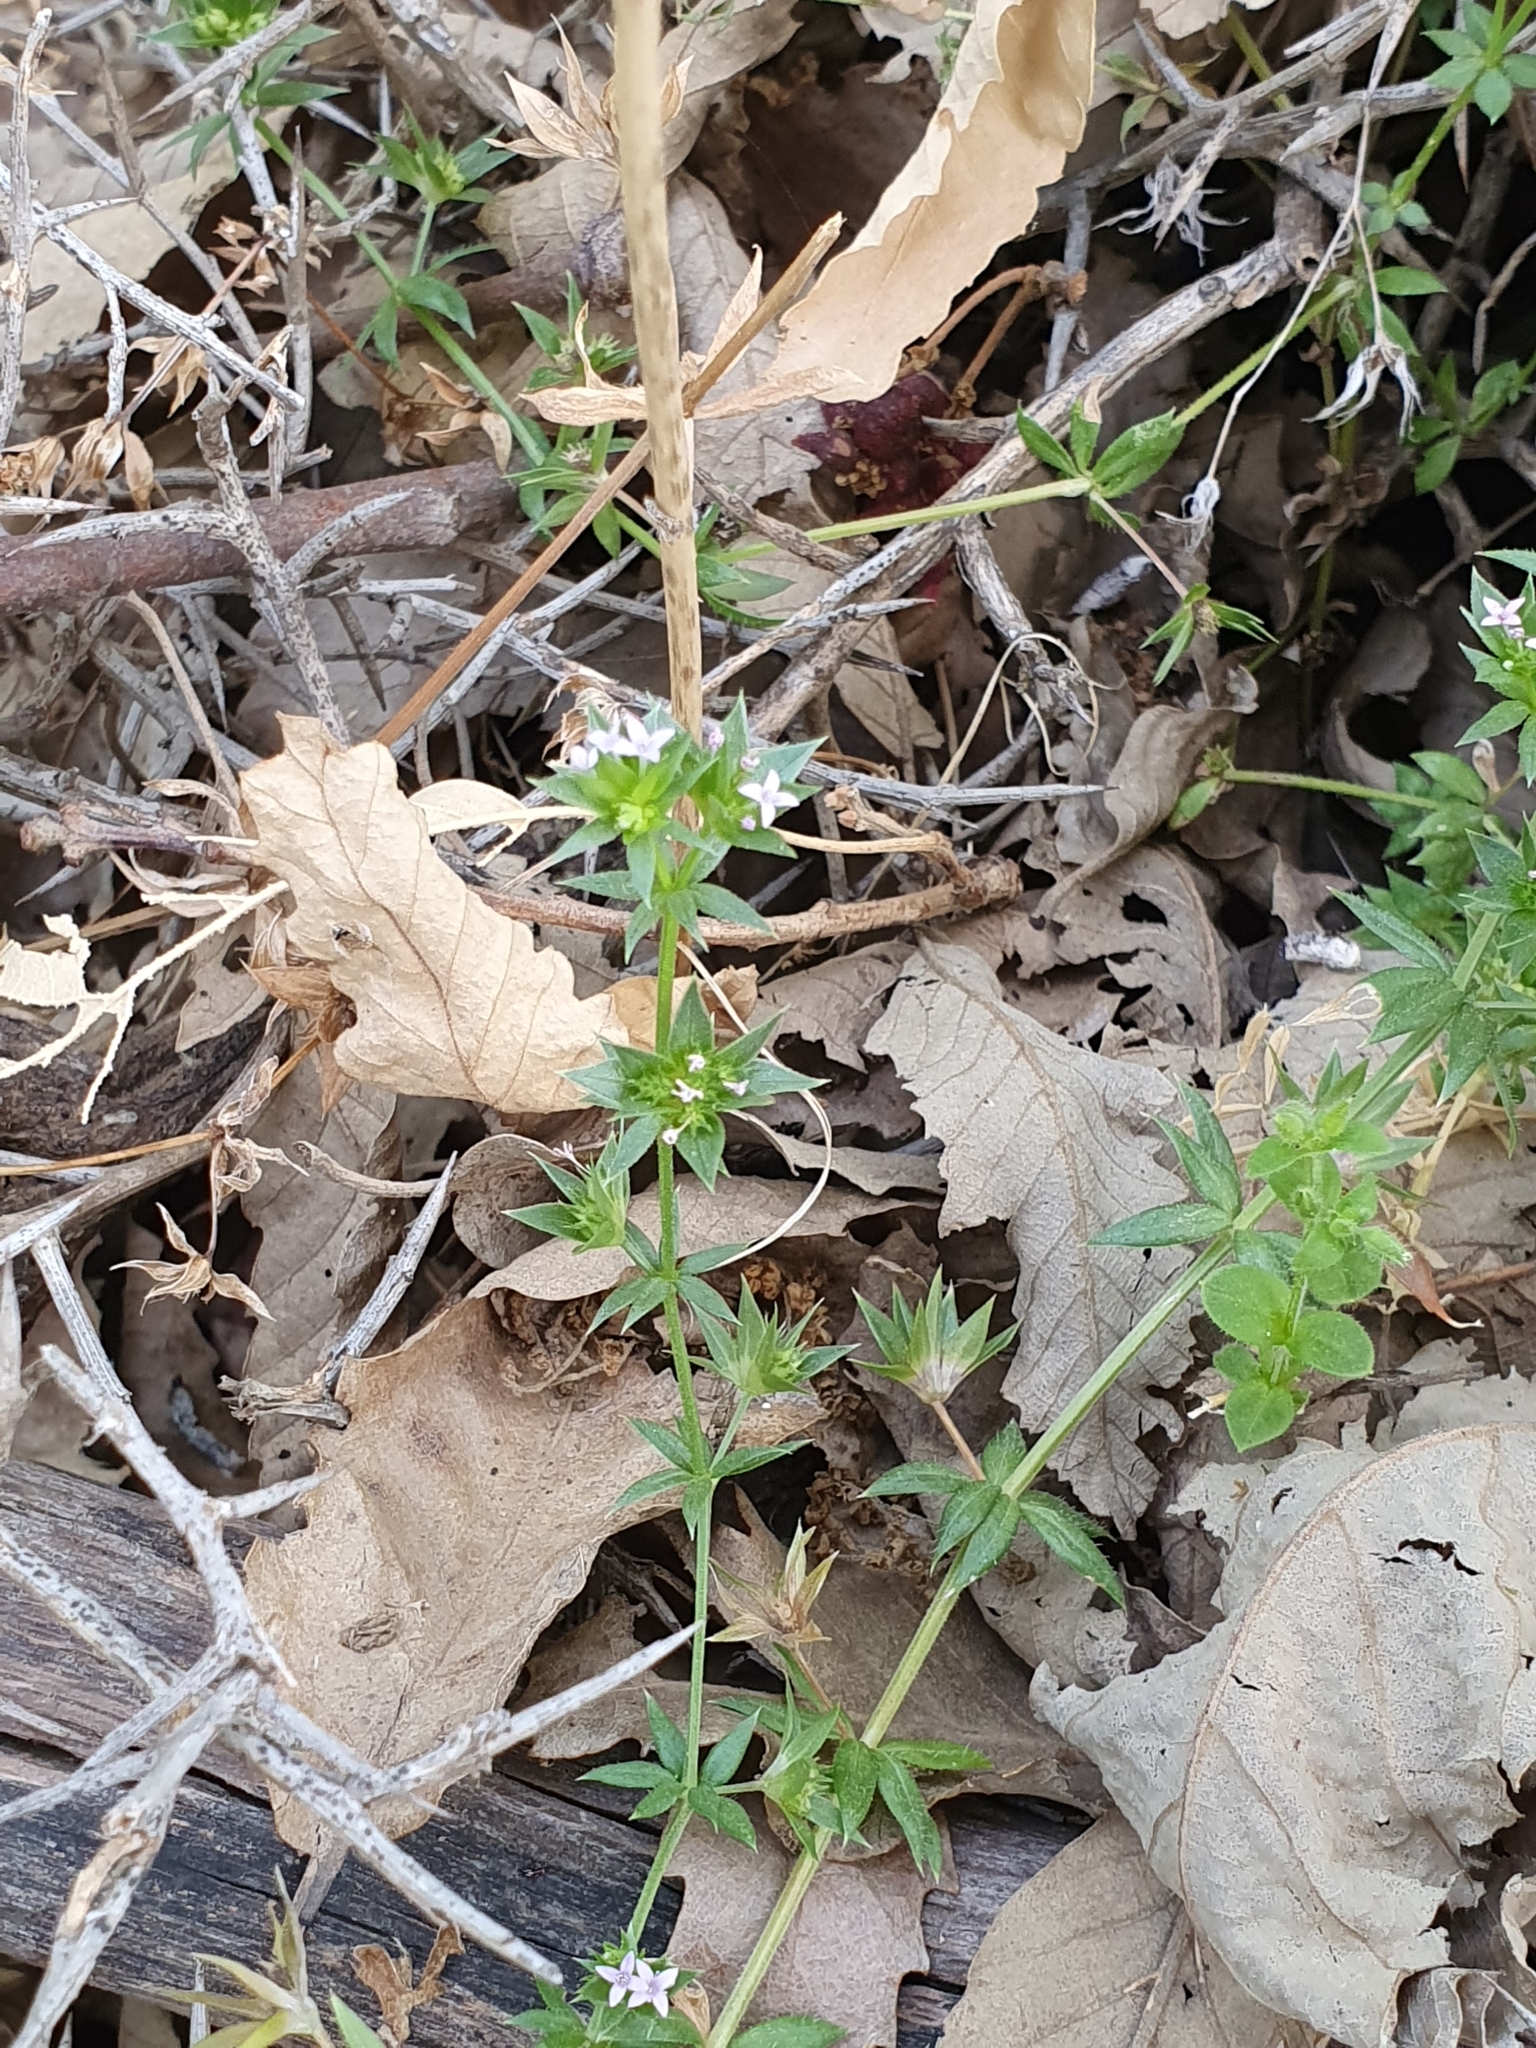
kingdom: Plantae
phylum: Tracheophyta
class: Magnoliopsida
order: Gentianales
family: Rubiaceae
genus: Sherardia
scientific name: Sherardia arvensis
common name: Field madder
